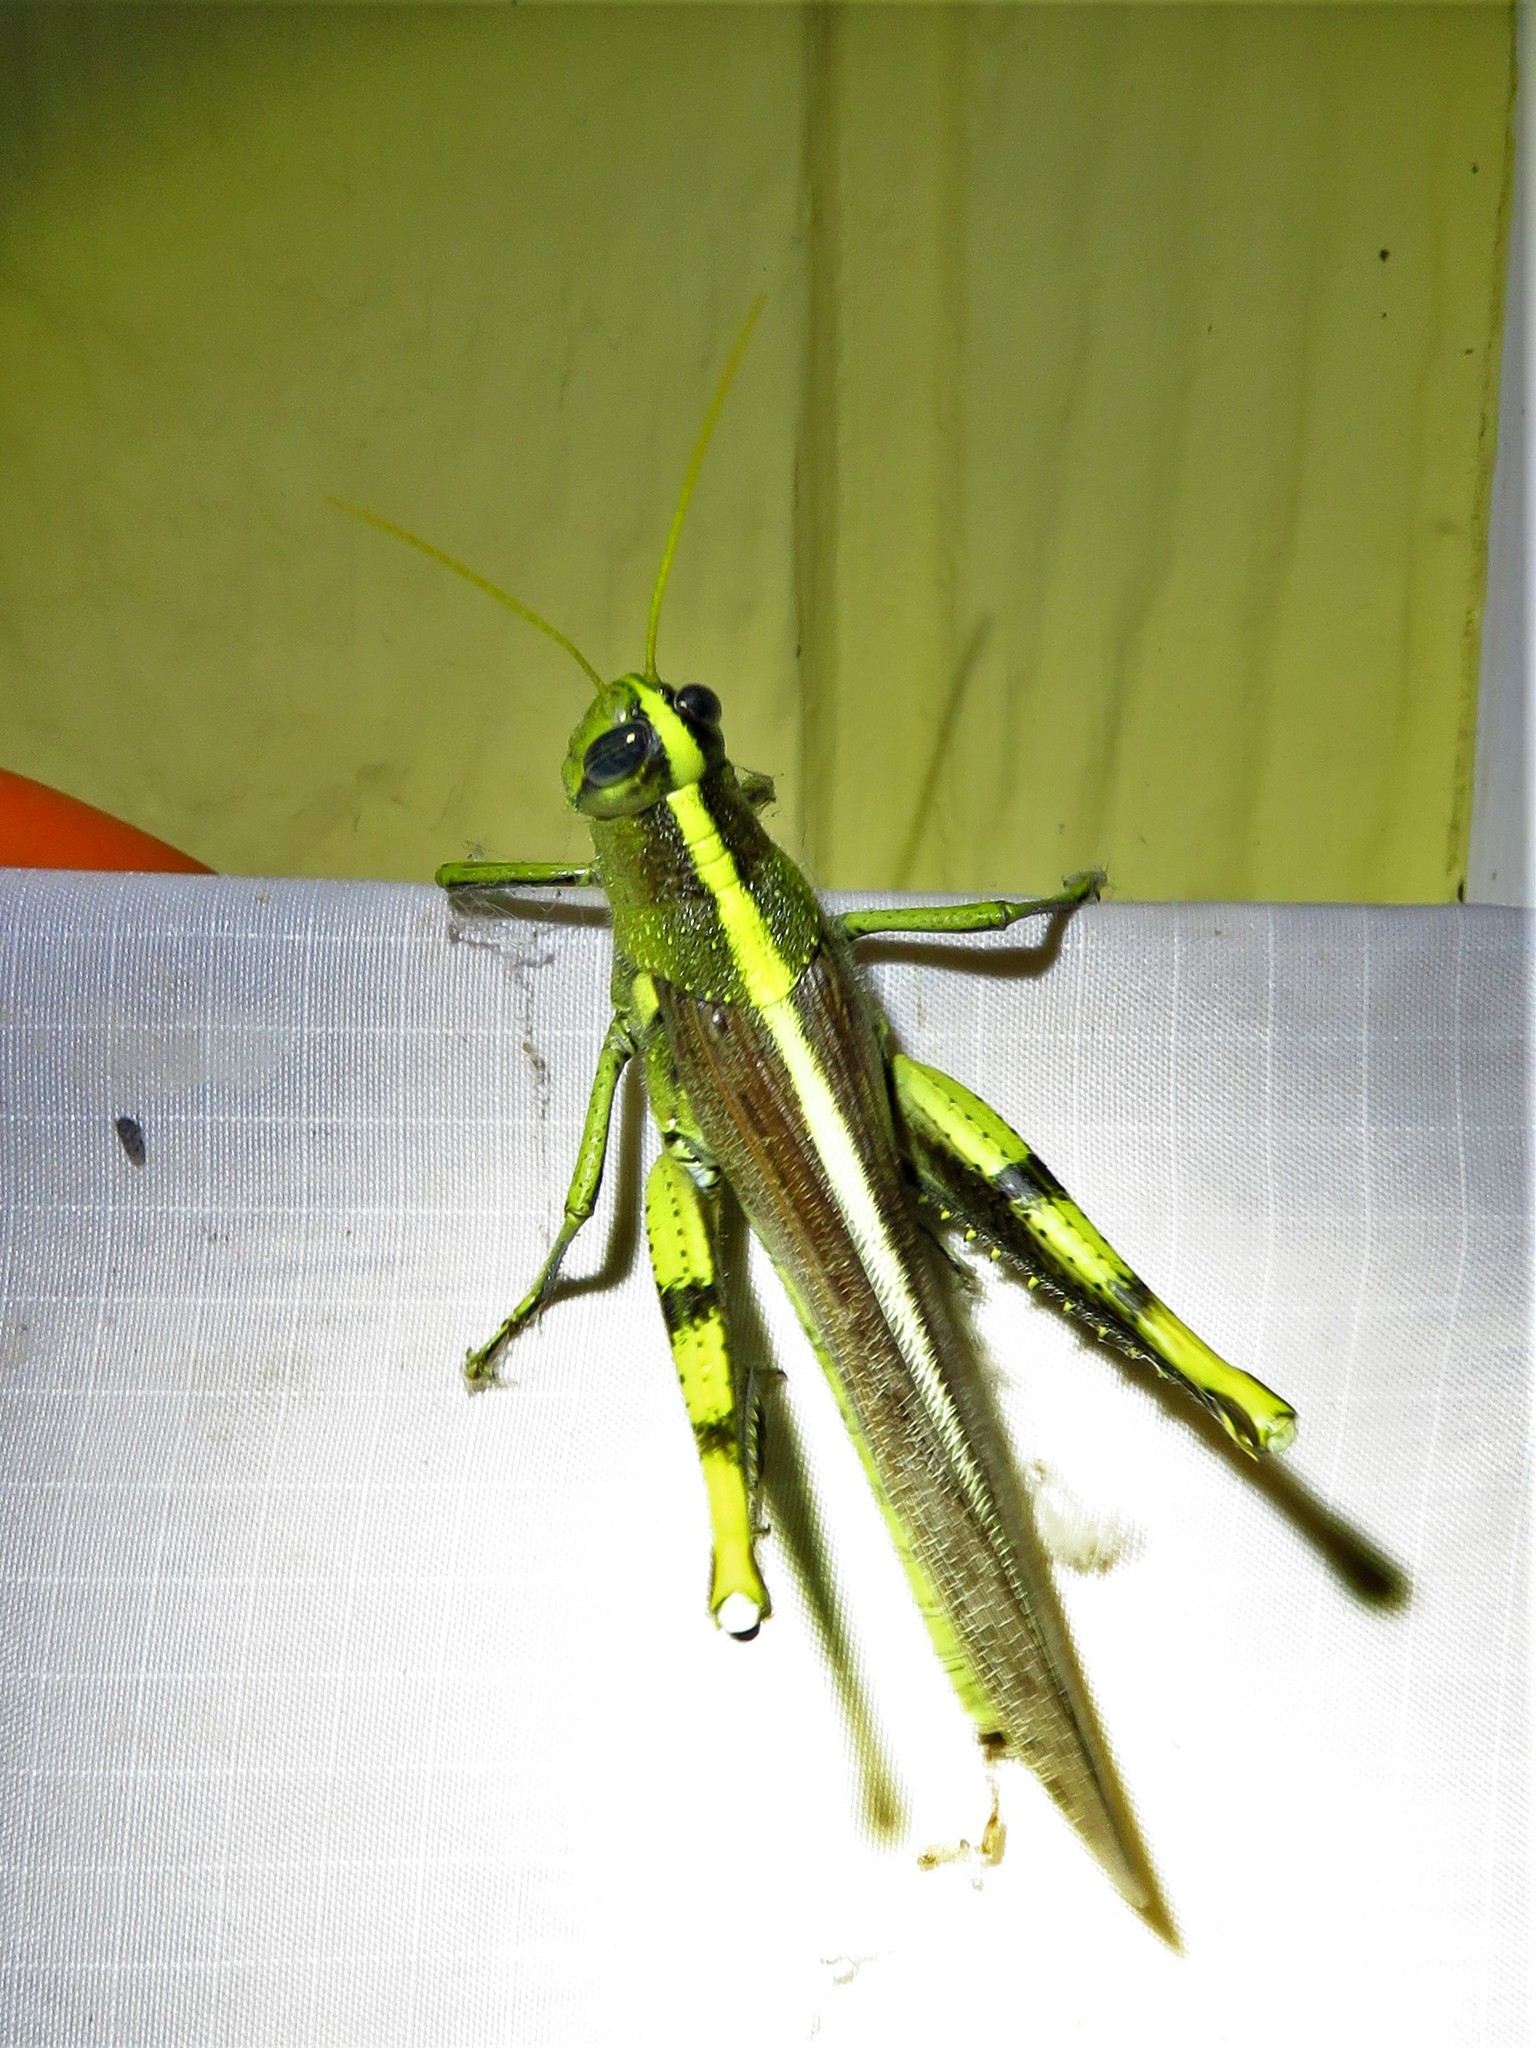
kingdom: Animalia
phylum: Arthropoda
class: Insecta
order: Orthoptera
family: Acrididae
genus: Schistocerca
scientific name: Schistocerca obscura
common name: Obscure bird grasshopper
